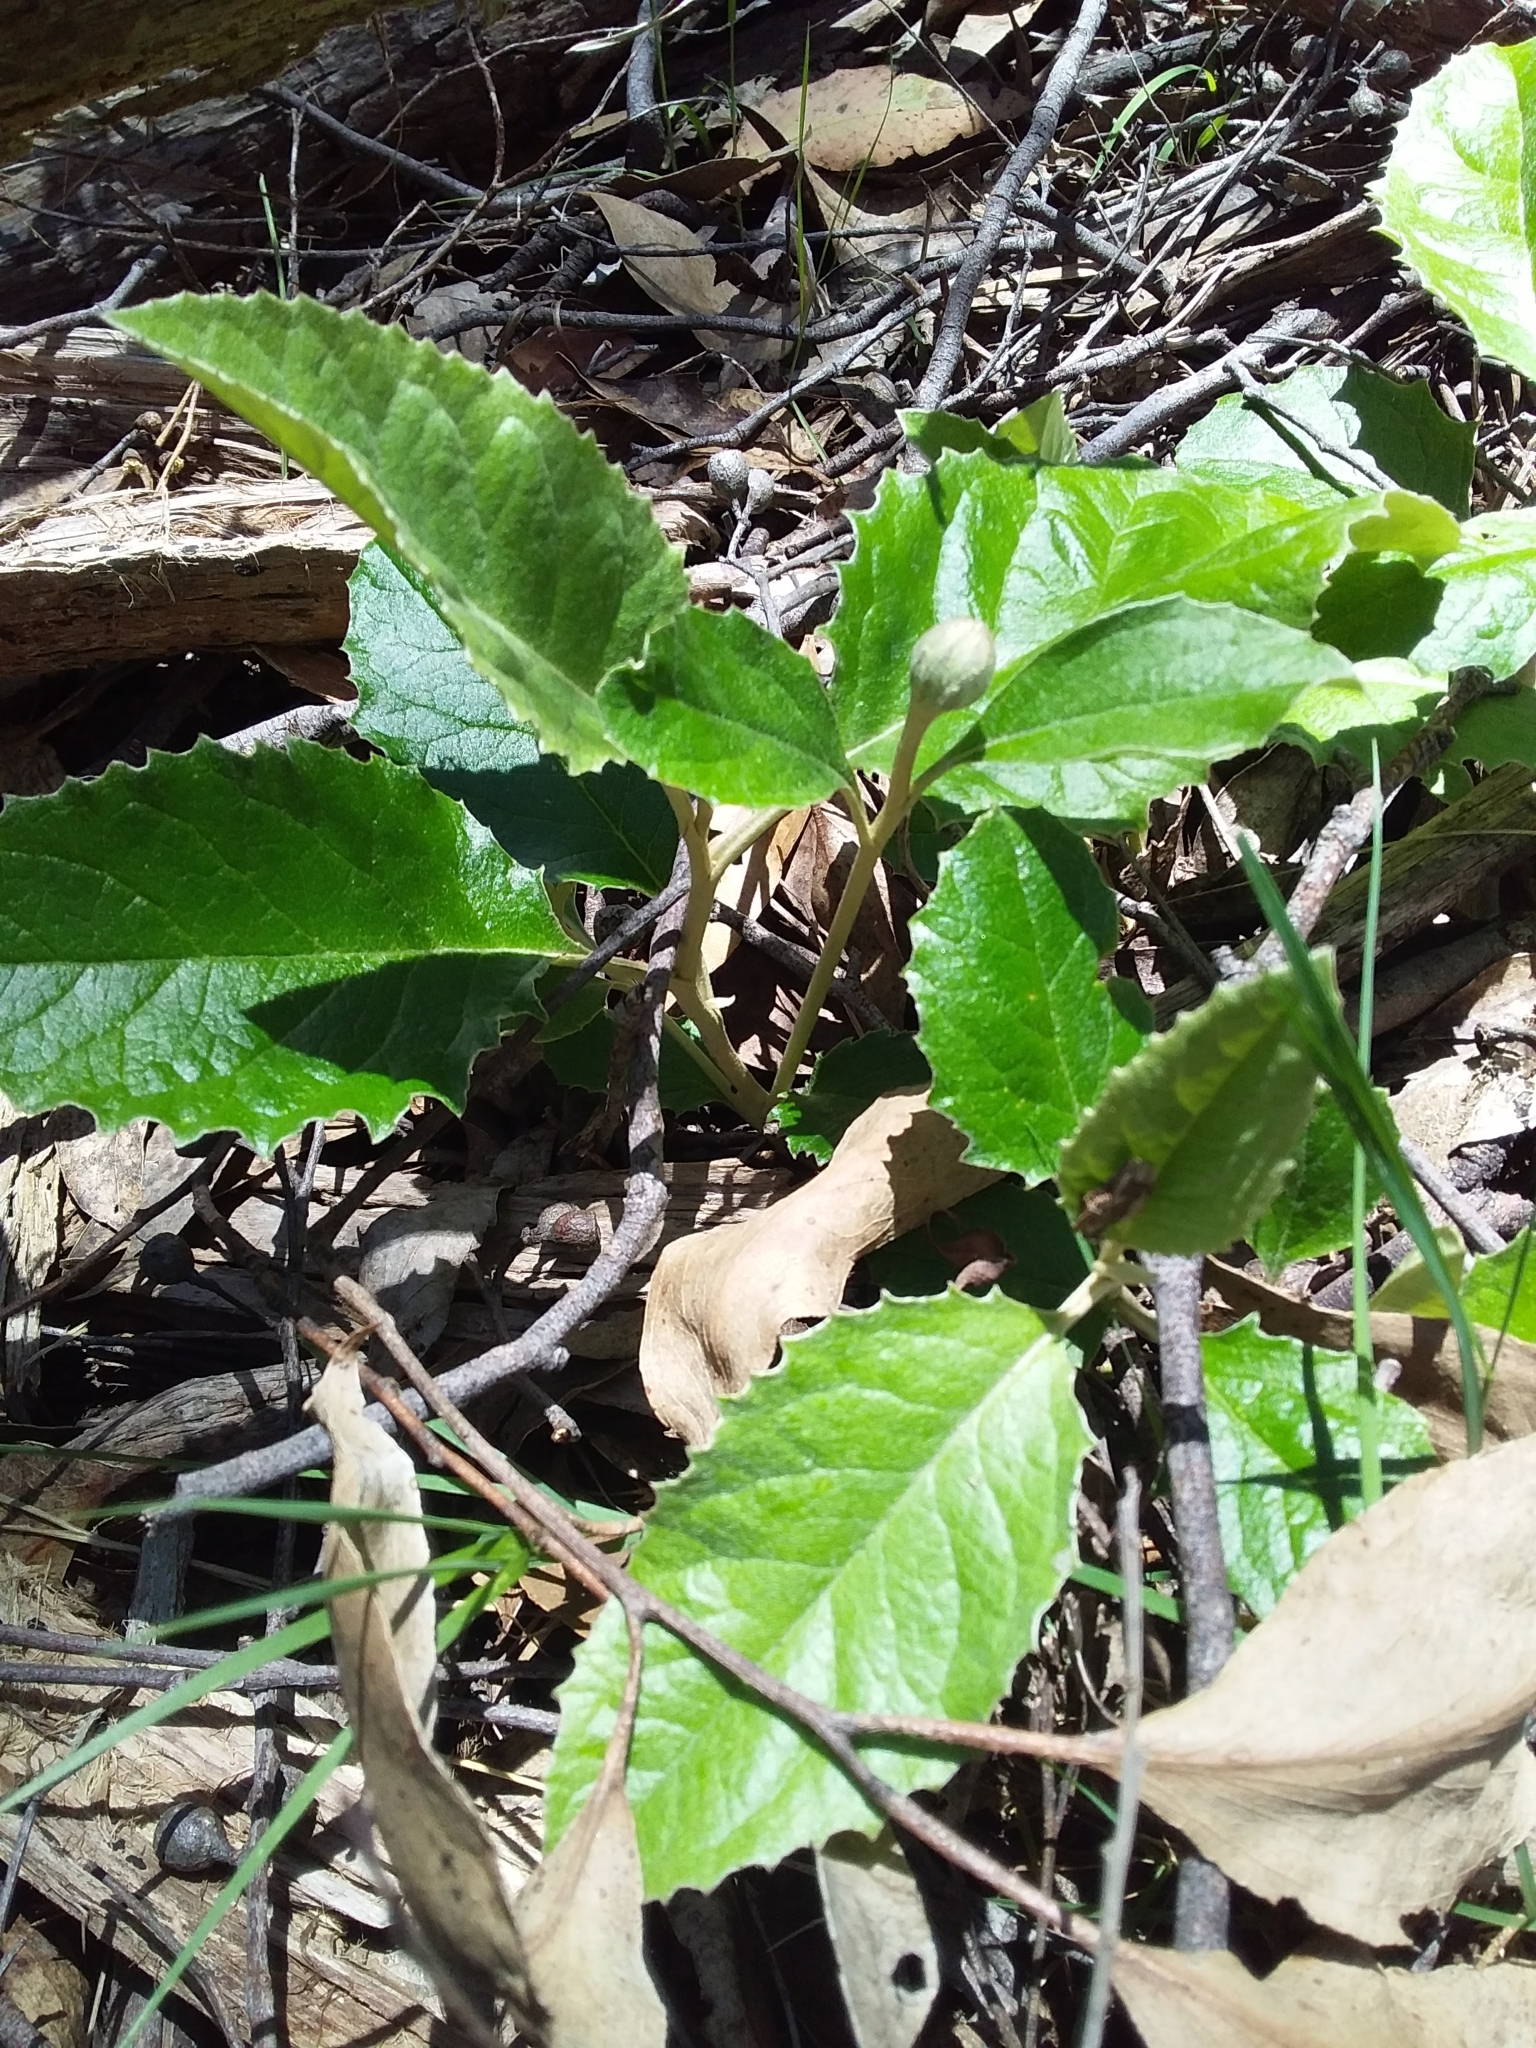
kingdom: Plantae
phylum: Tracheophyta
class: Magnoliopsida
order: Asterales
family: Asteraceae
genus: Olearia
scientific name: Olearia grandiflora
